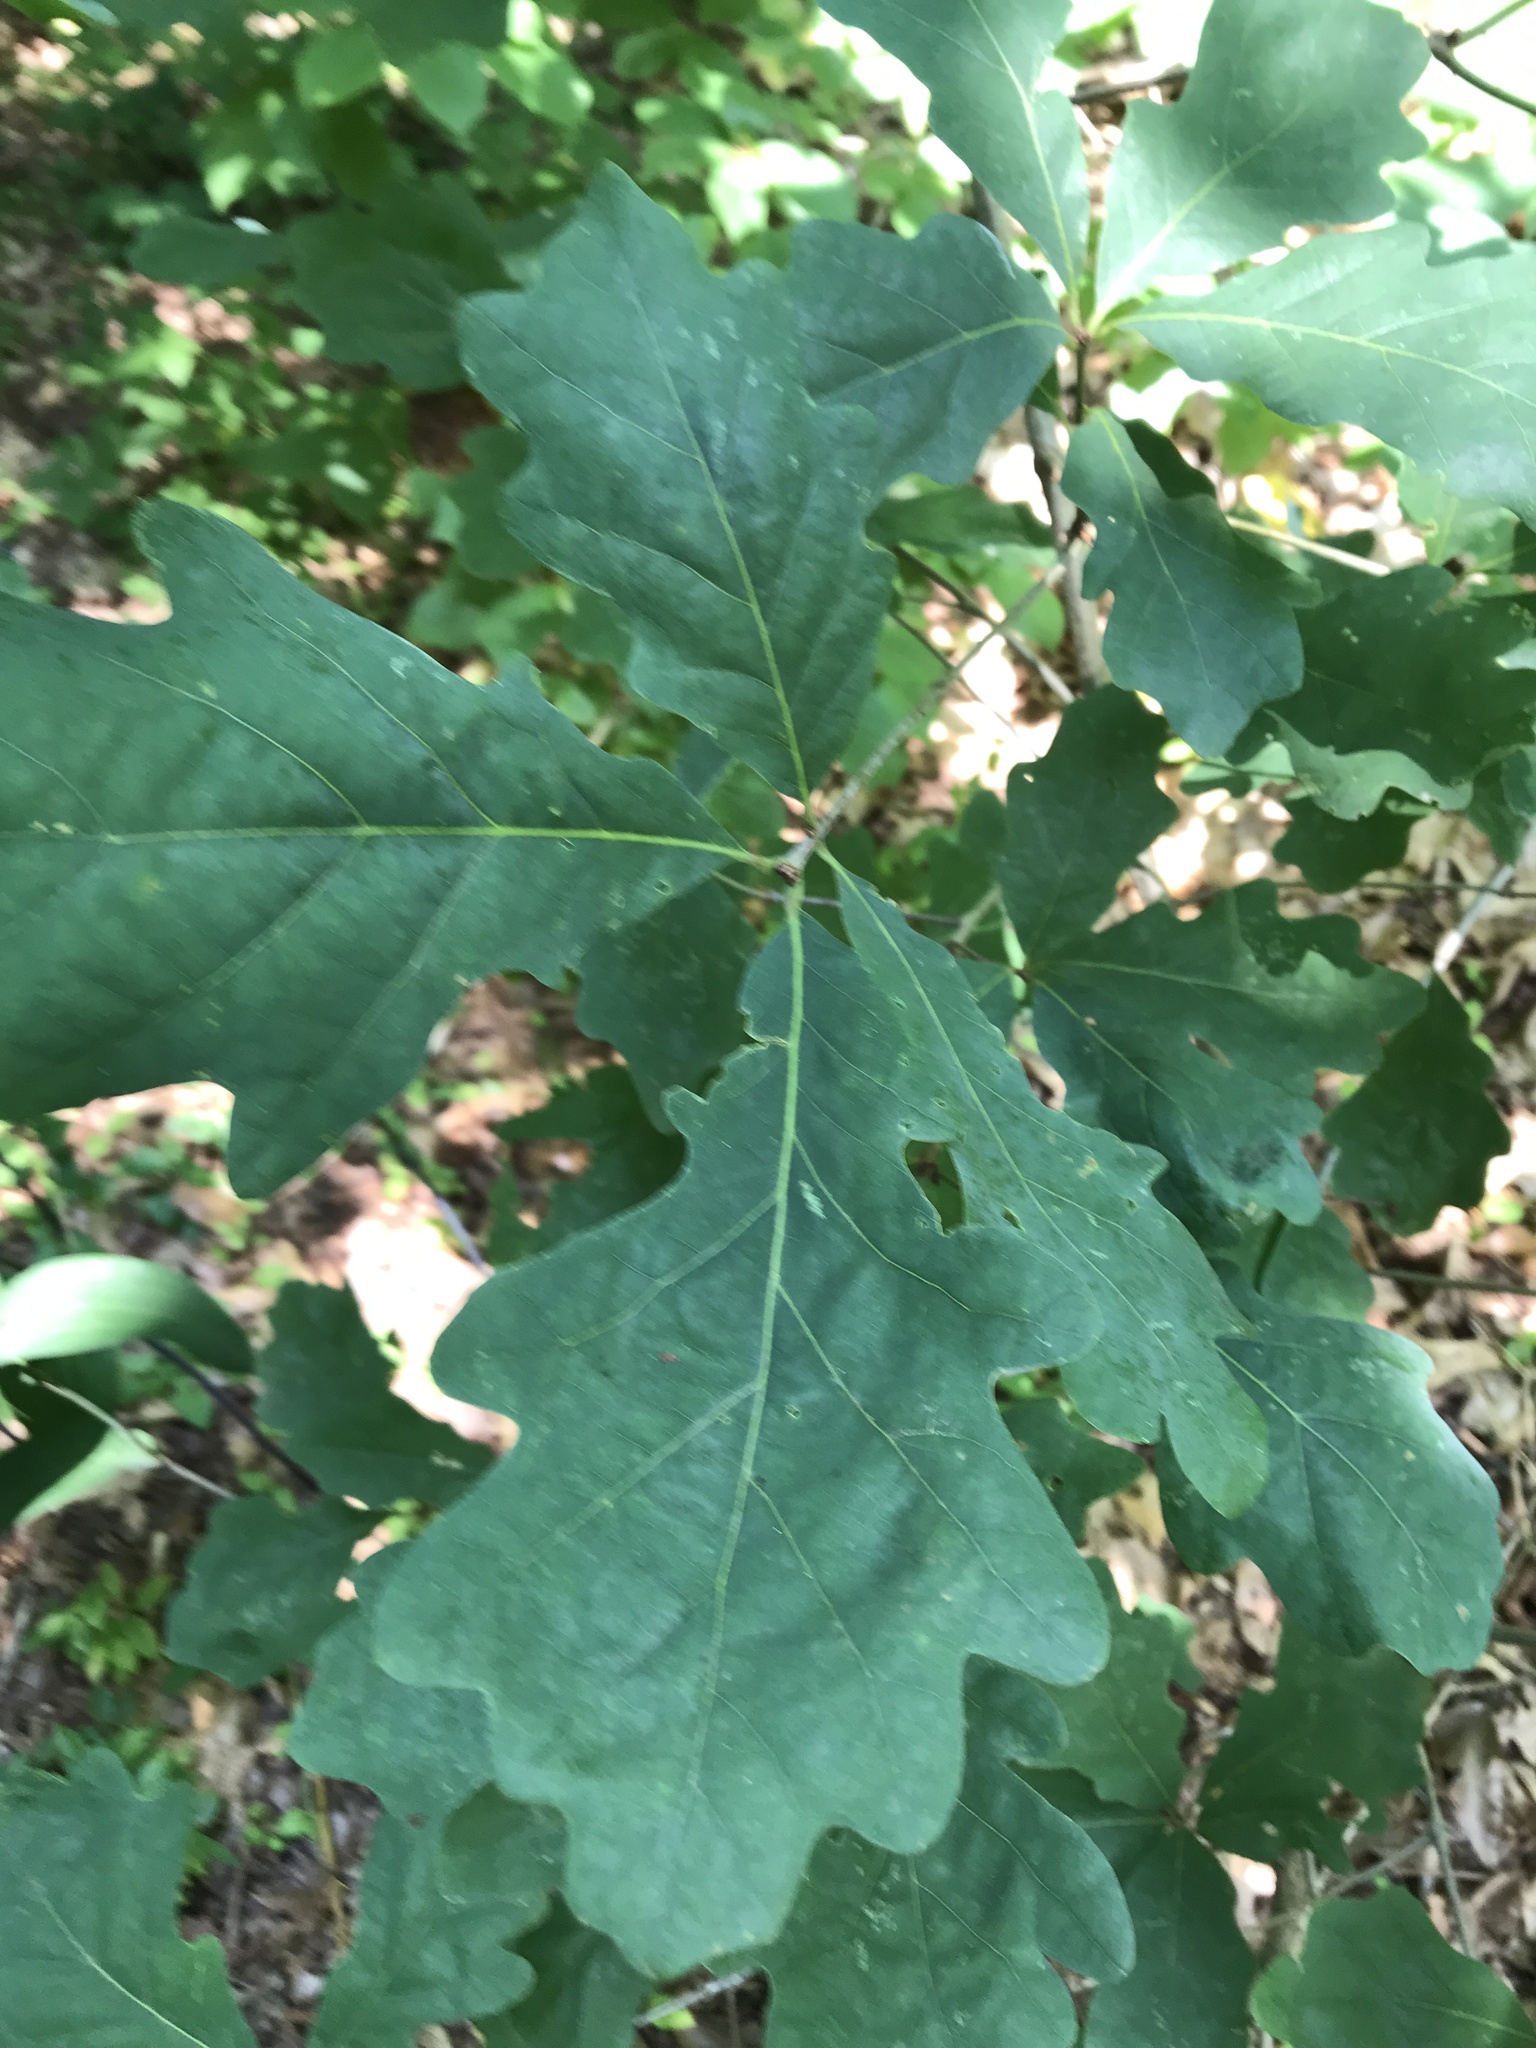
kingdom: Plantae
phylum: Tracheophyta
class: Magnoliopsida
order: Fagales
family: Fagaceae
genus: Quercus
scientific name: Quercus alba
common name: White oak
